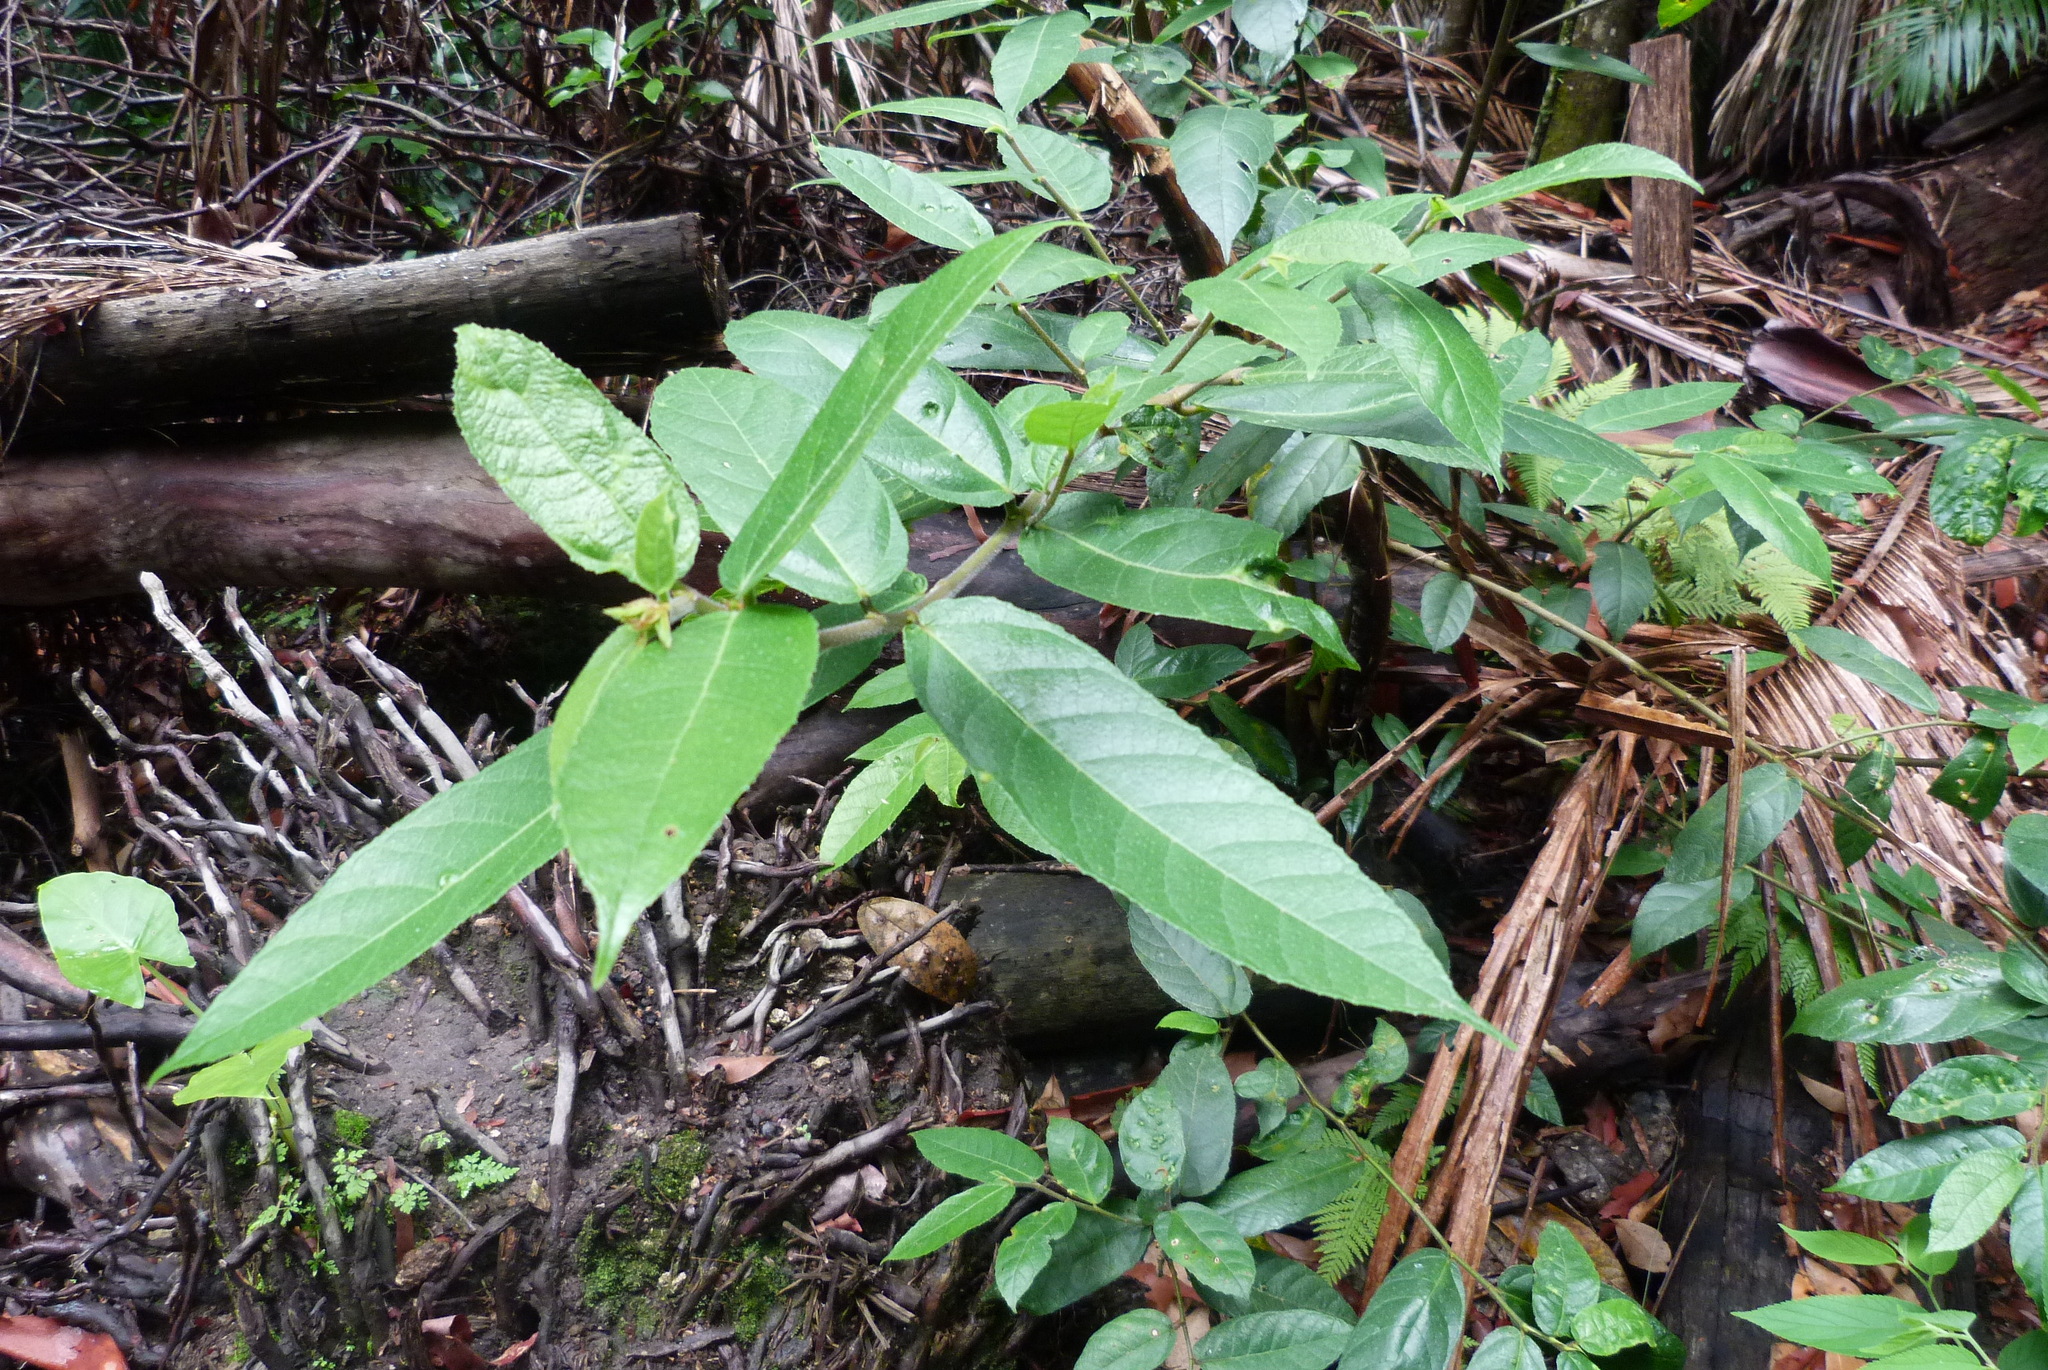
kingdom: Plantae
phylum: Tracheophyta
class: Magnoliopsida
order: Rosales
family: Moraceae
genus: Ficus
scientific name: Ficus coronata
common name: Creek sandpaper fig
